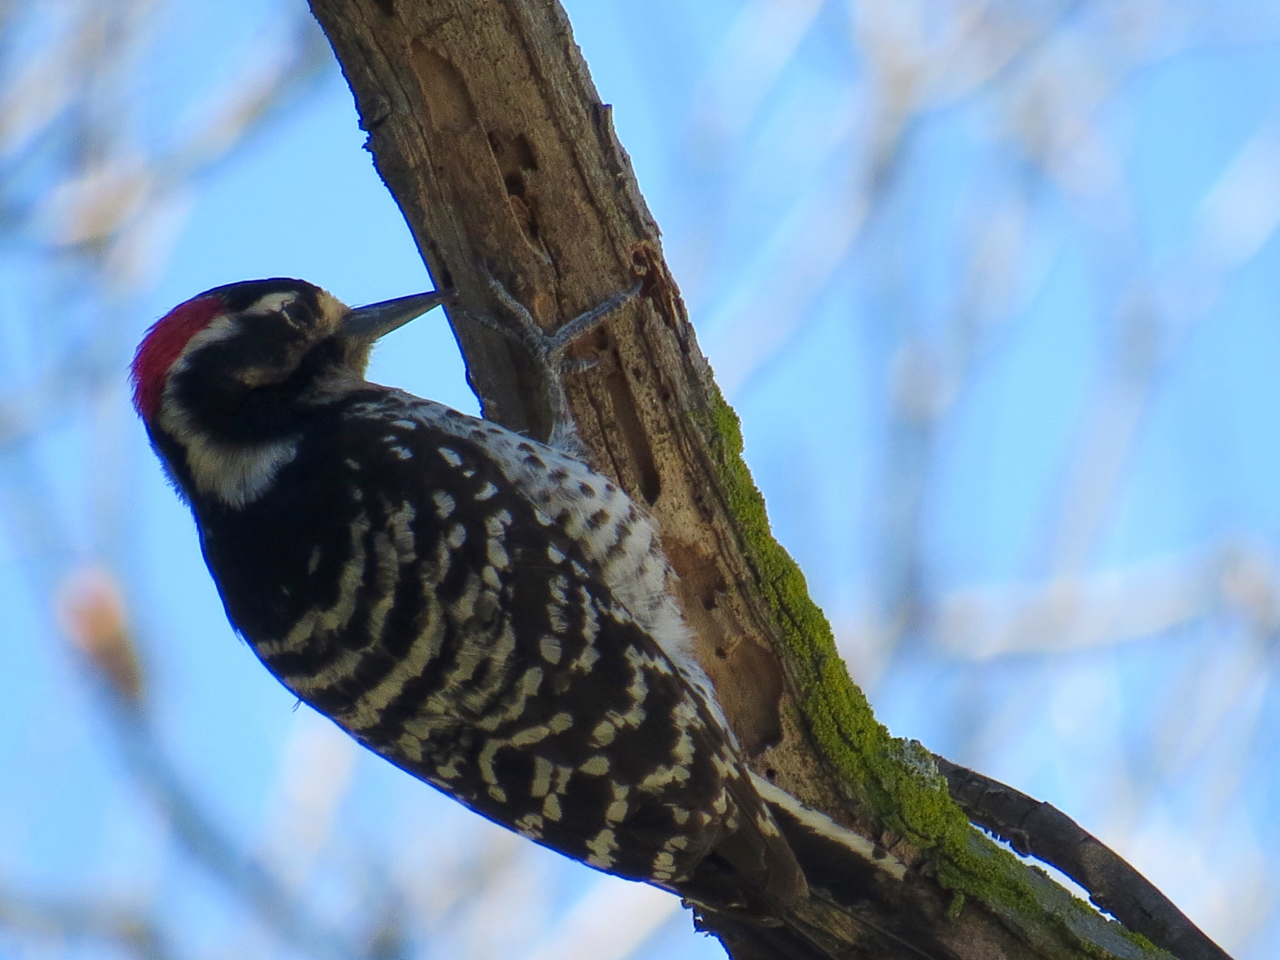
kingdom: Animalia
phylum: Chordata
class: Aves
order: Piciformes
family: Picidae
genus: Dryobates
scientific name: Dryobates nuttallii
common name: Nuttall's woodpecker
